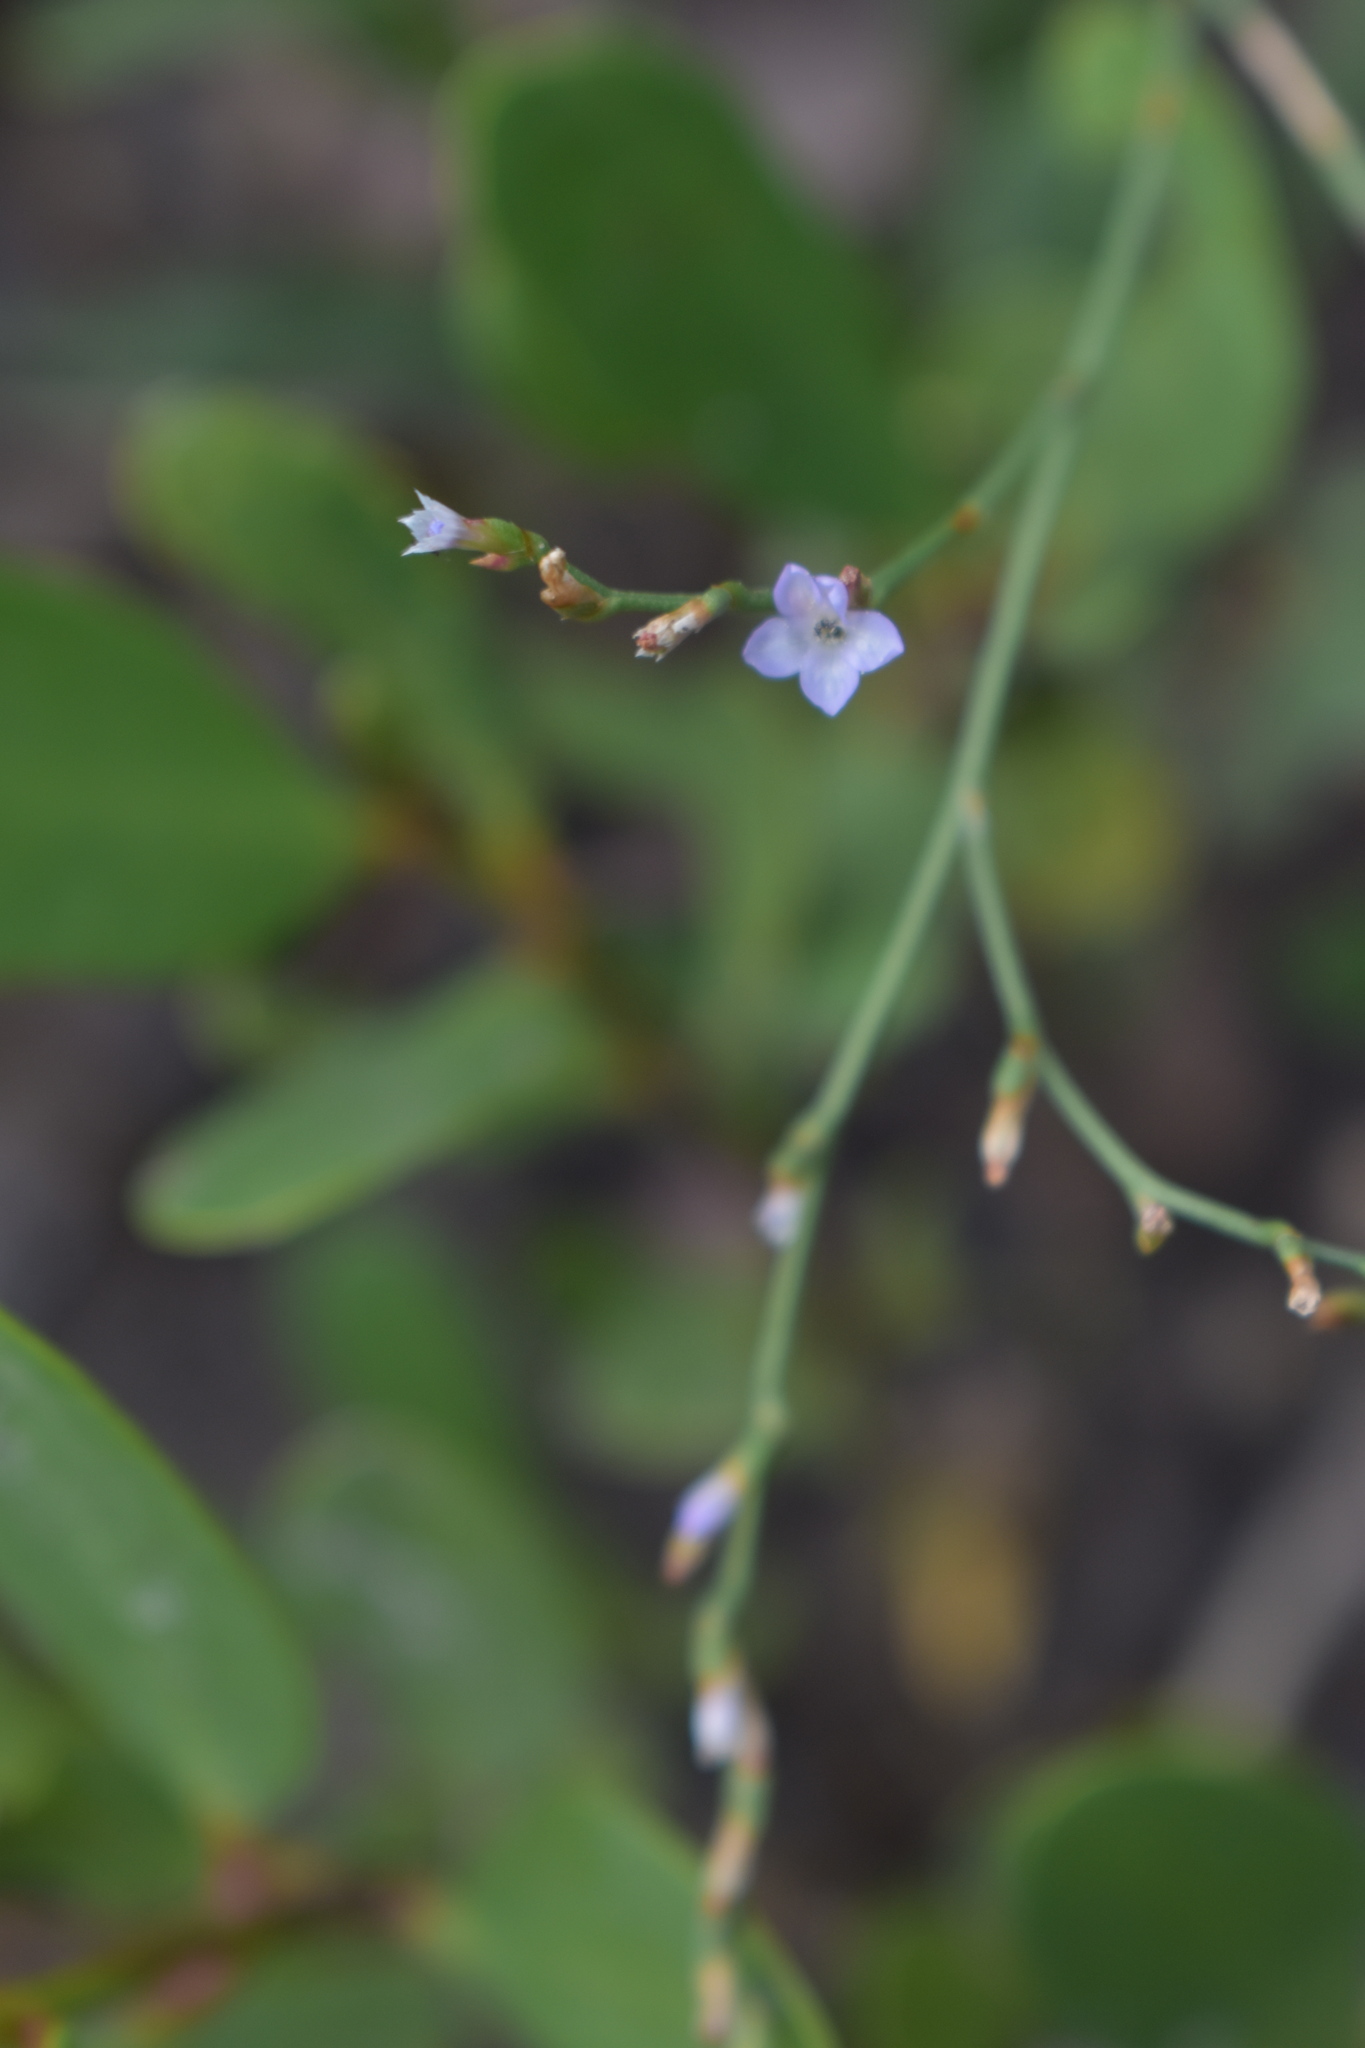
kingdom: Plantae
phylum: Tracheophyta
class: Magnoliopsida
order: Caryophyllales
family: Plumbaginaceae
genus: Limonium
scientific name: Limonium carolinianum
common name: Carolina sea lavender
